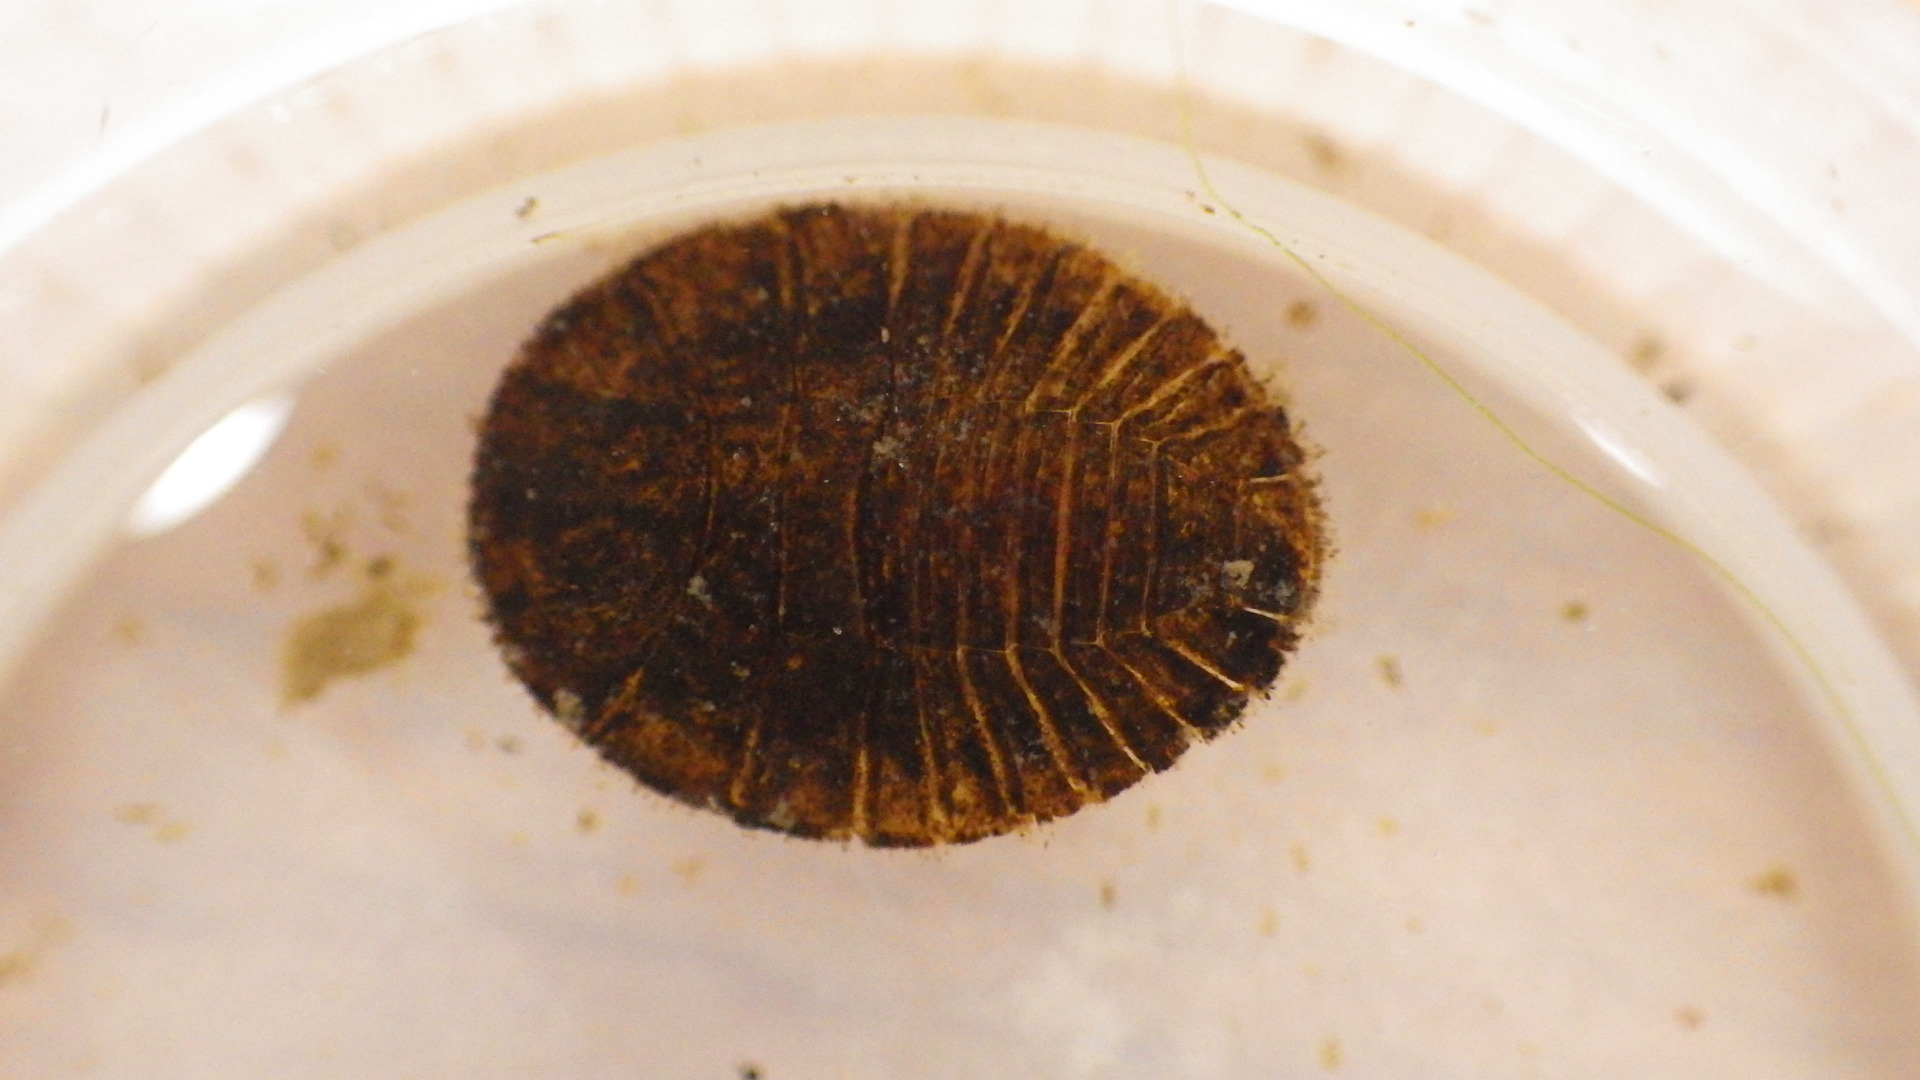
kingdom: Animalia
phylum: Arthropoda
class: Insecta
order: Coleoptera
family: Psephenidae
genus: Psephenus
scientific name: Psephenus herricki
